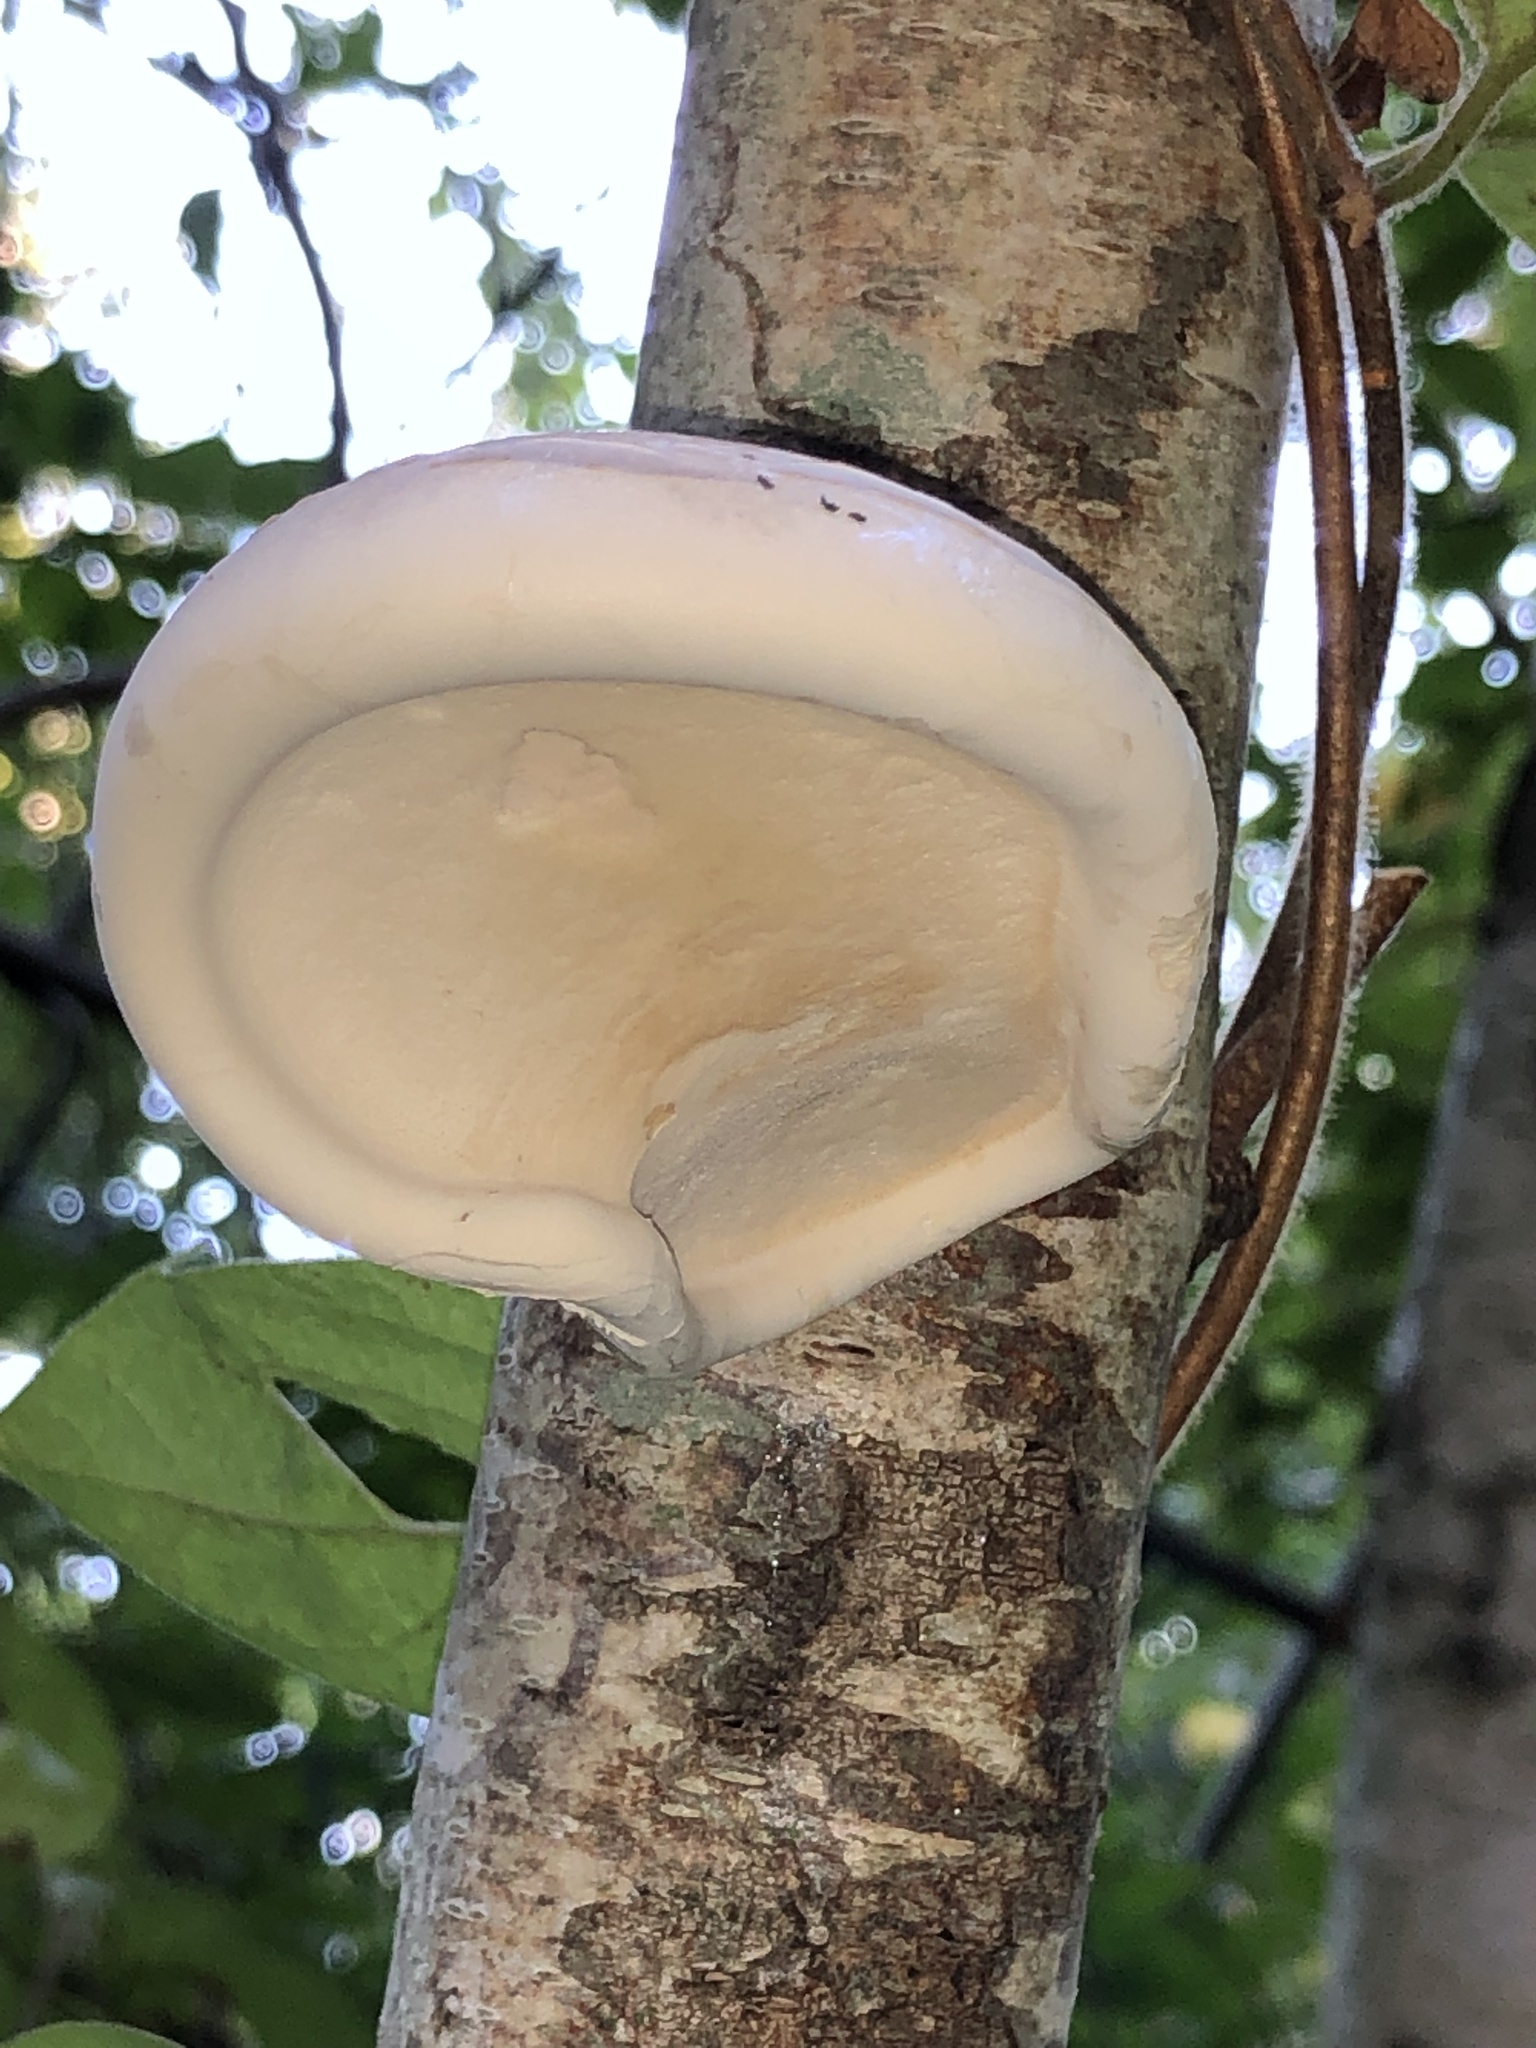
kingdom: Fungi
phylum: Basidiomycota
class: Agaricomycetes
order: Polyporales
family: Fomitopsidaceae
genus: Fomitopsis
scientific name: Fomitopsis betulina
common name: Birch polypore
